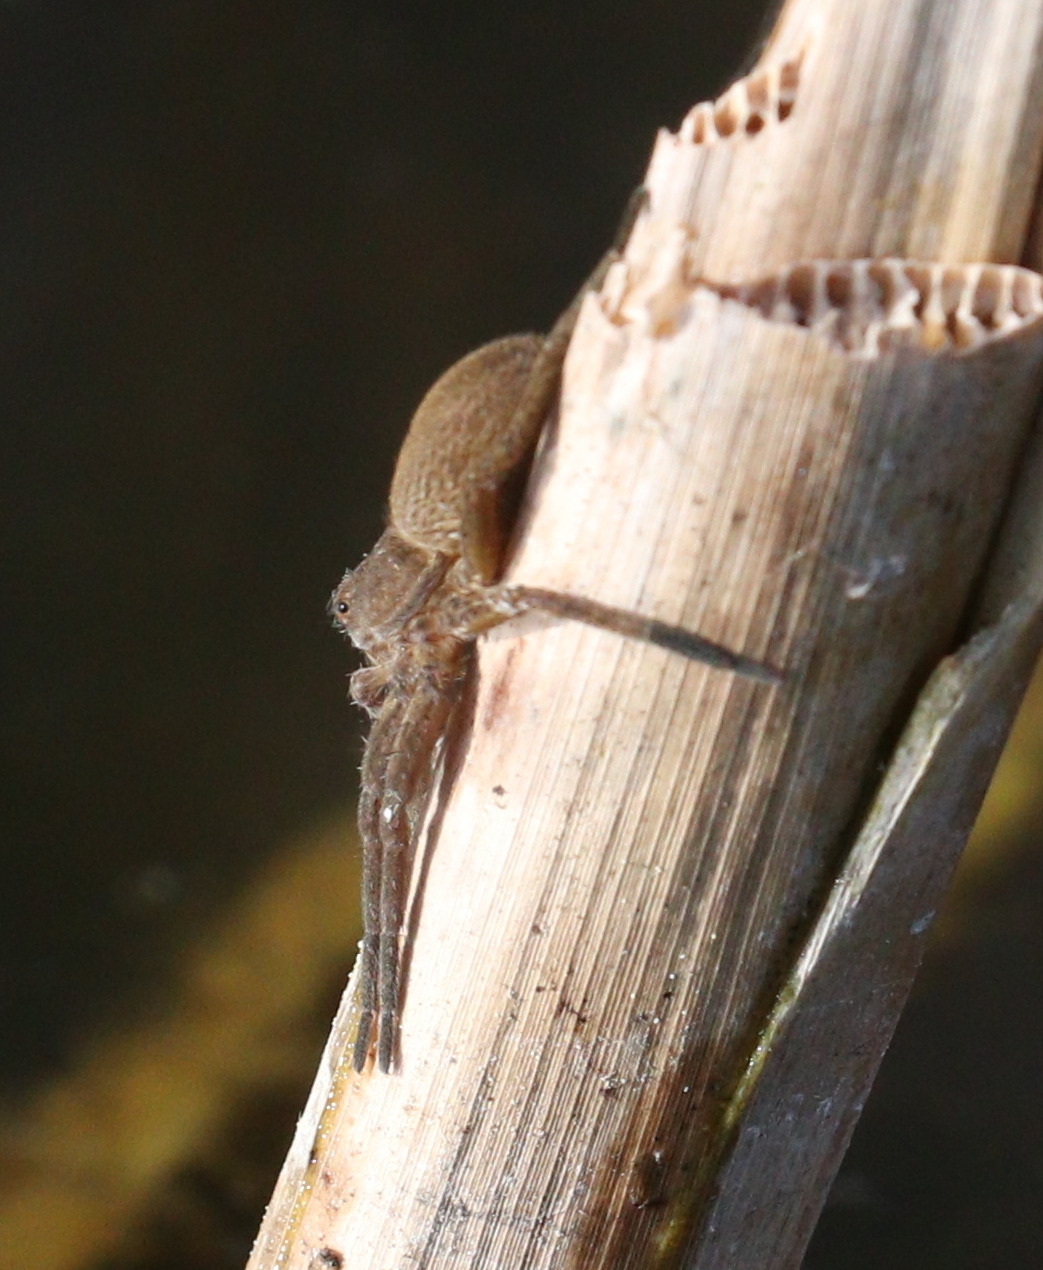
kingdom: Animalia
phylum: Arthropoda
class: Arachnida
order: Araneae
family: Pisauridae
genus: Dolomedes
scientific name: Dolomedes plantarius
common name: Fen raft spider
